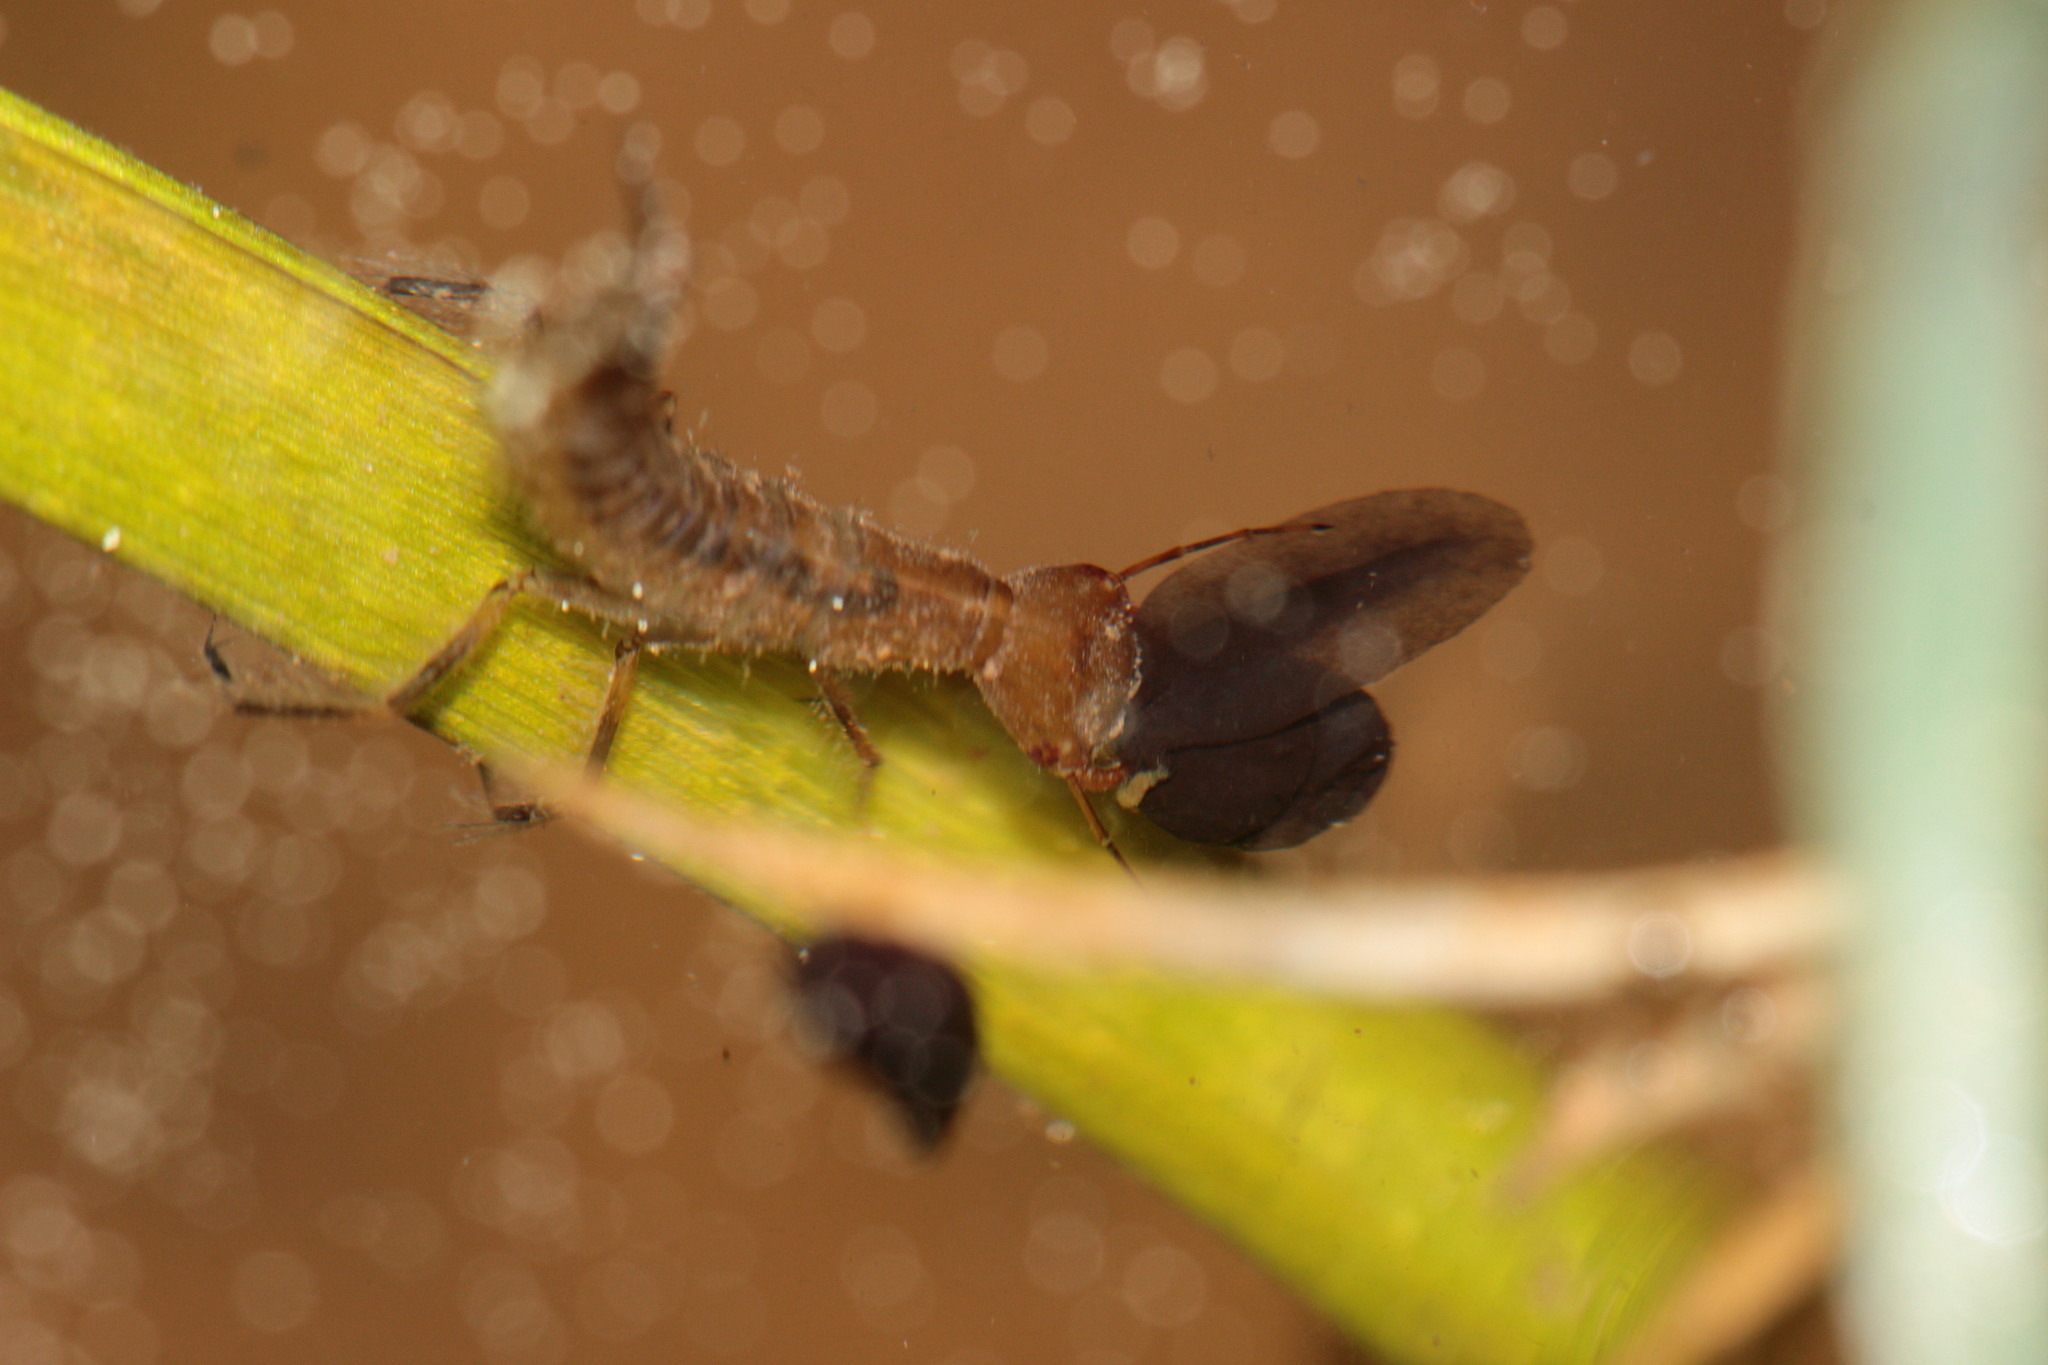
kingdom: Animalia
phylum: Chordata
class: Amphibia
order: Anura
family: Bufonidae
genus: Bufo
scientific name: Bufo bufo
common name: Common toad
